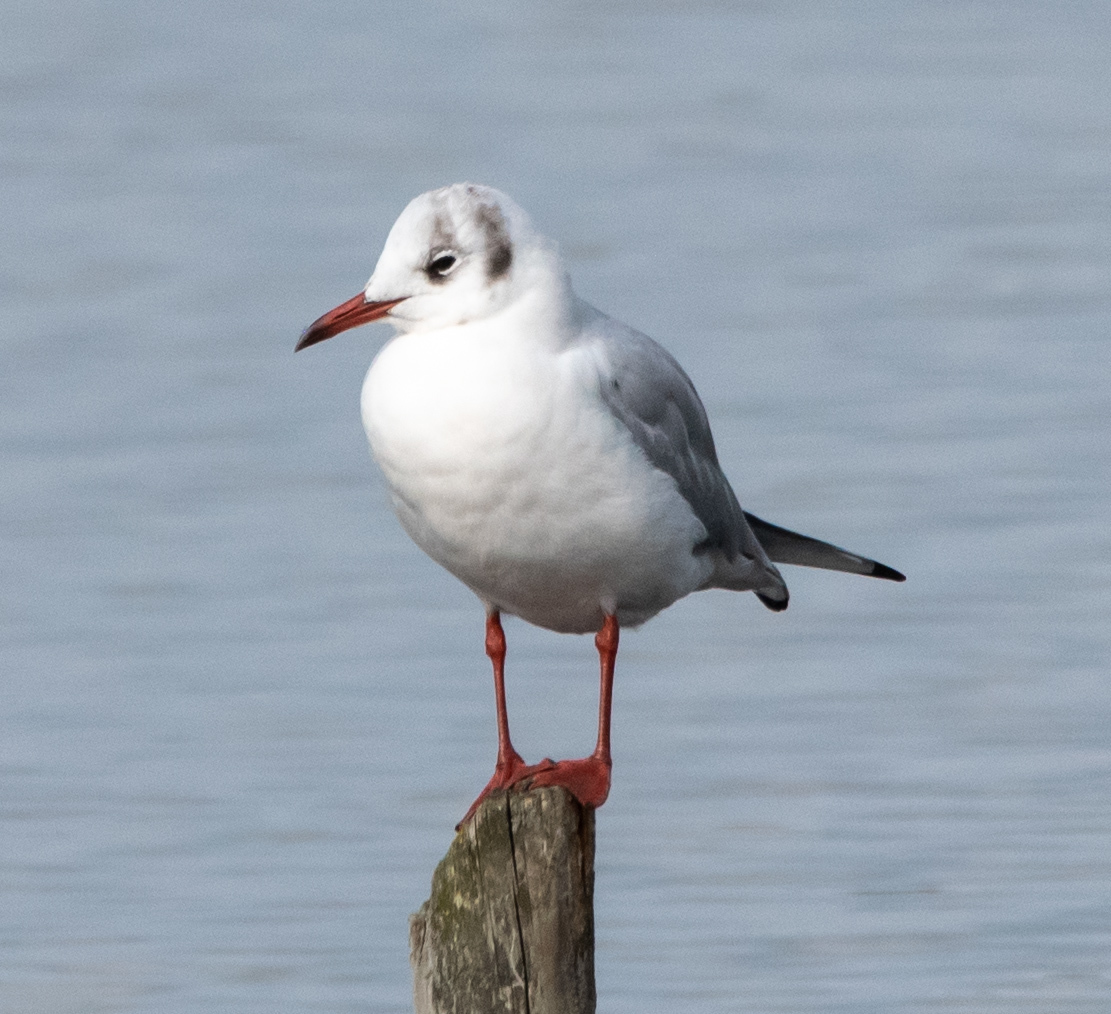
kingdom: Animalia
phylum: Chordata
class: Aves
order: Charadriiformes
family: Laridae
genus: Chroicocephalus
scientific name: Chroicocephalus ridibundus
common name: Black-headed gull
